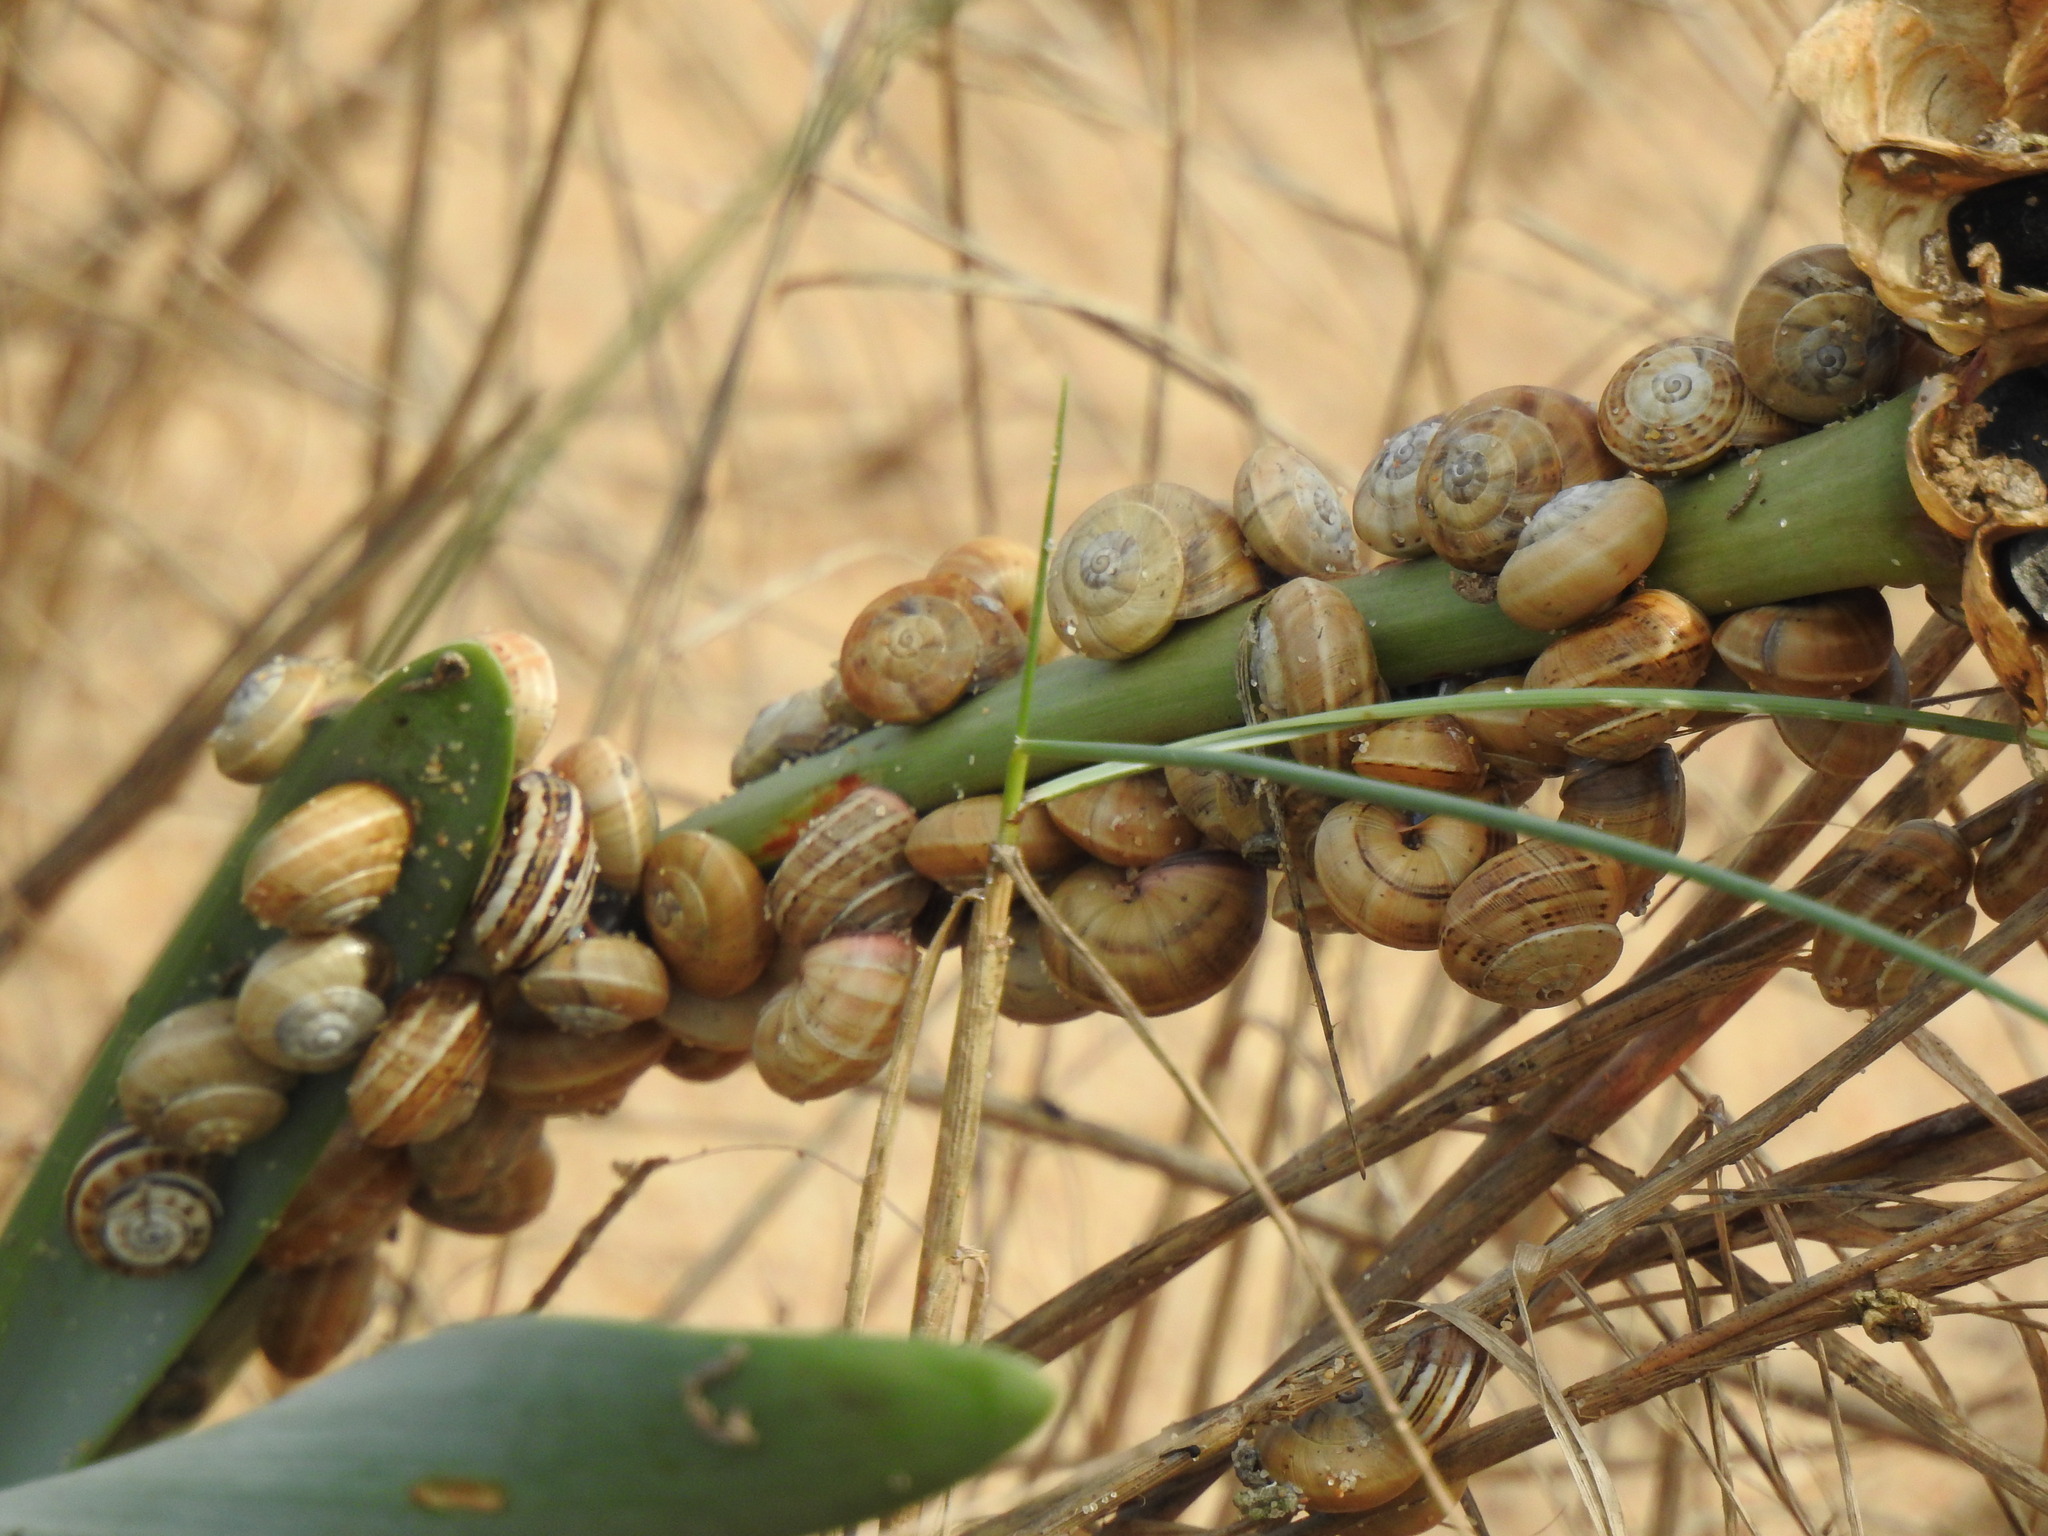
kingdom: Animalia
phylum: Mollusca
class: Gastropoda
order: Stylommatophora
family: Helicidae
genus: Theba
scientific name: Theba pisana
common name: White snail
